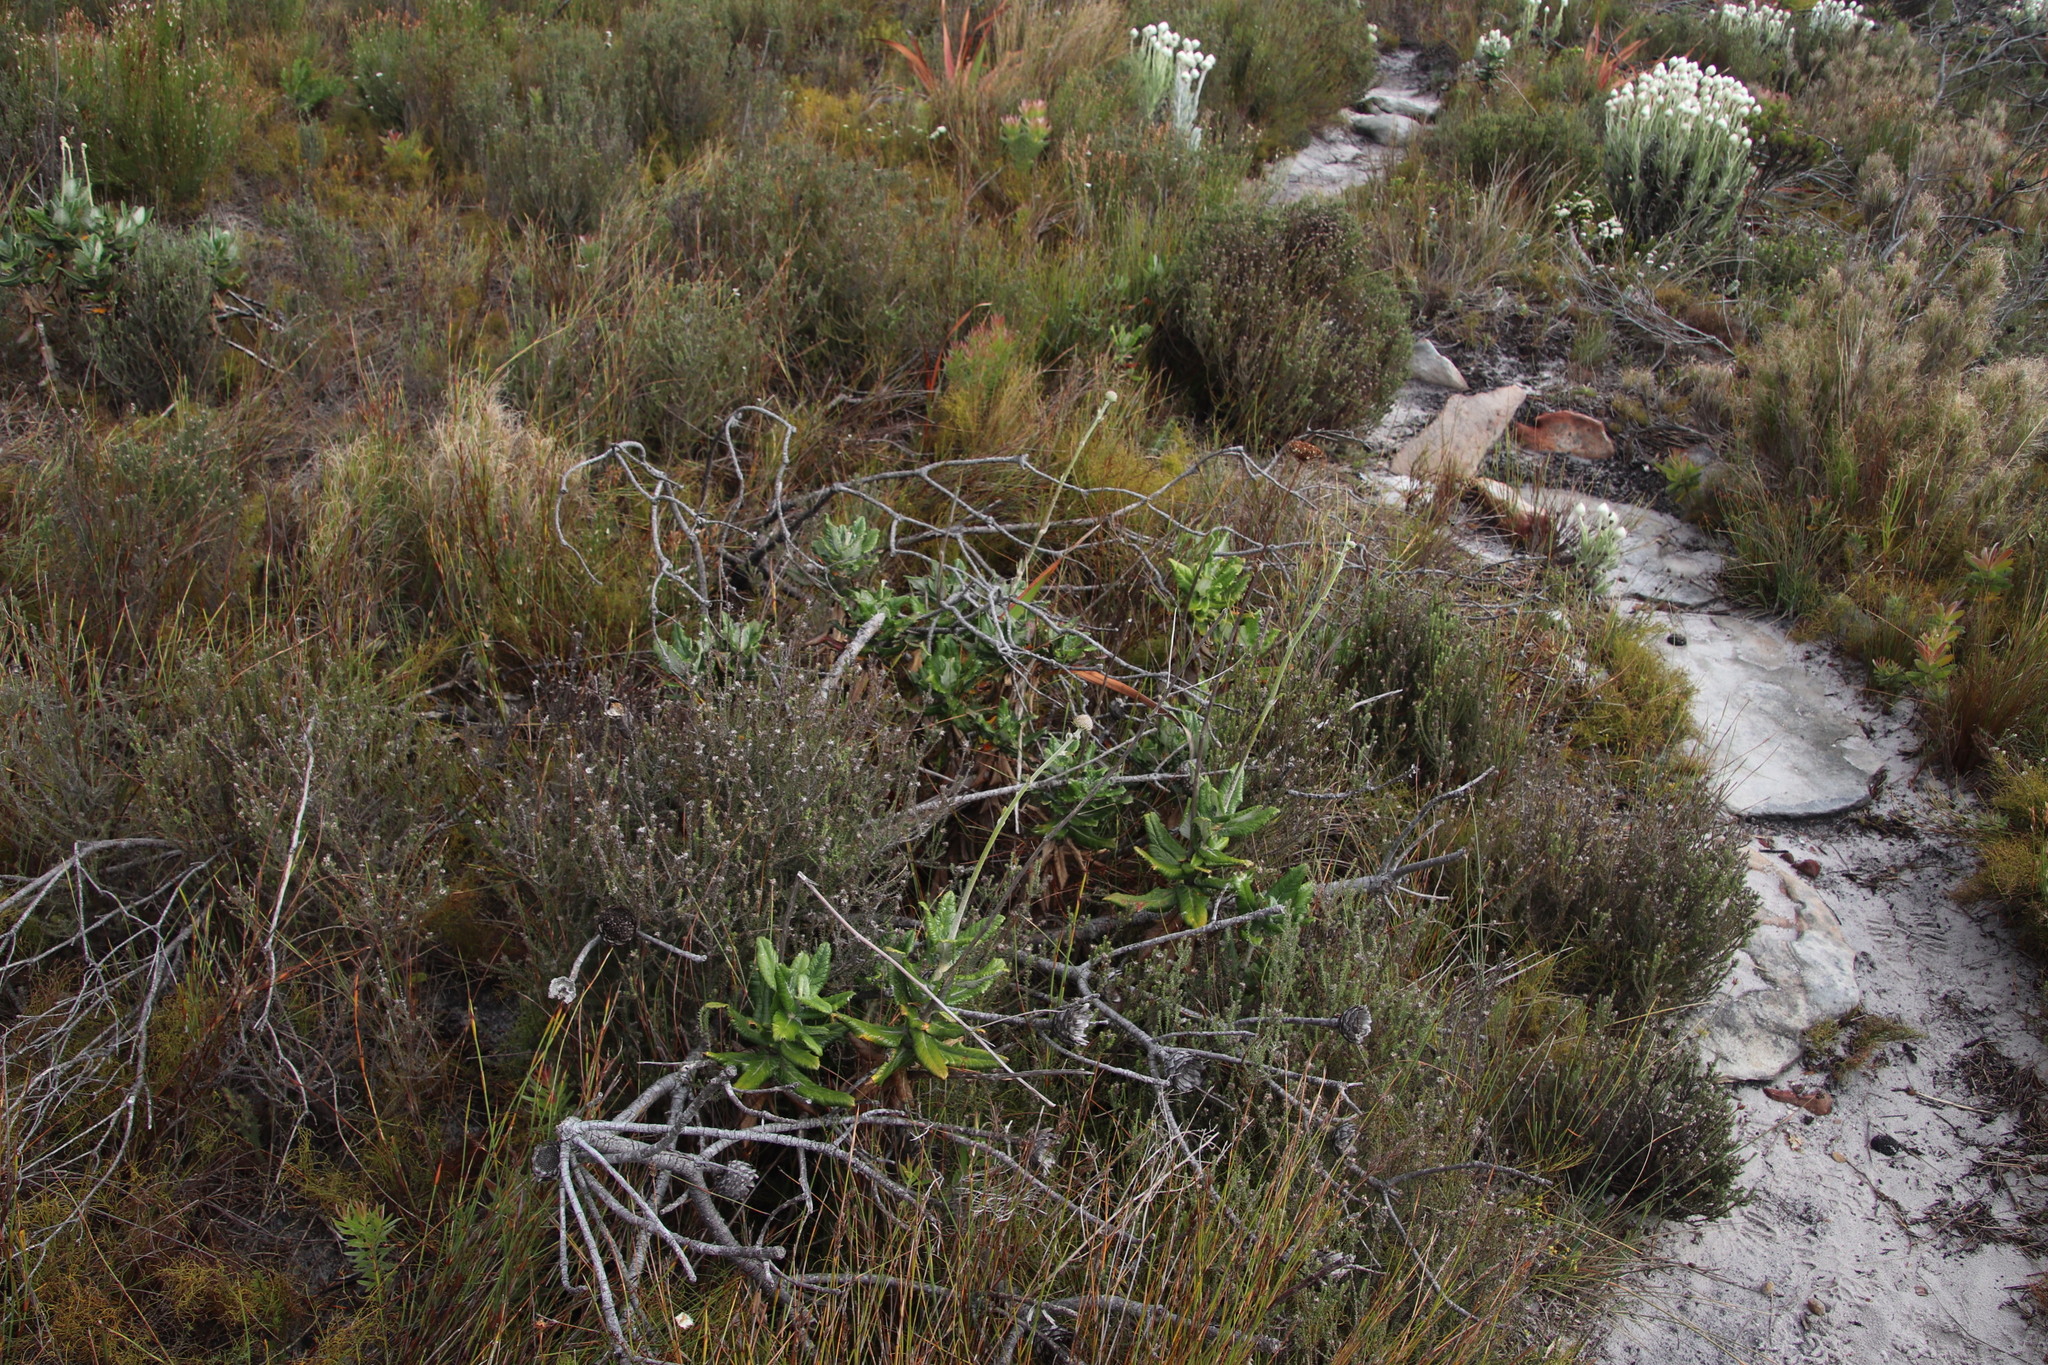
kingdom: Plantae
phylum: Tracheophyta
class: Magnoliopsida
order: Apiales
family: Apiaceae
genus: Hermas
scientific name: Hermas villosa
